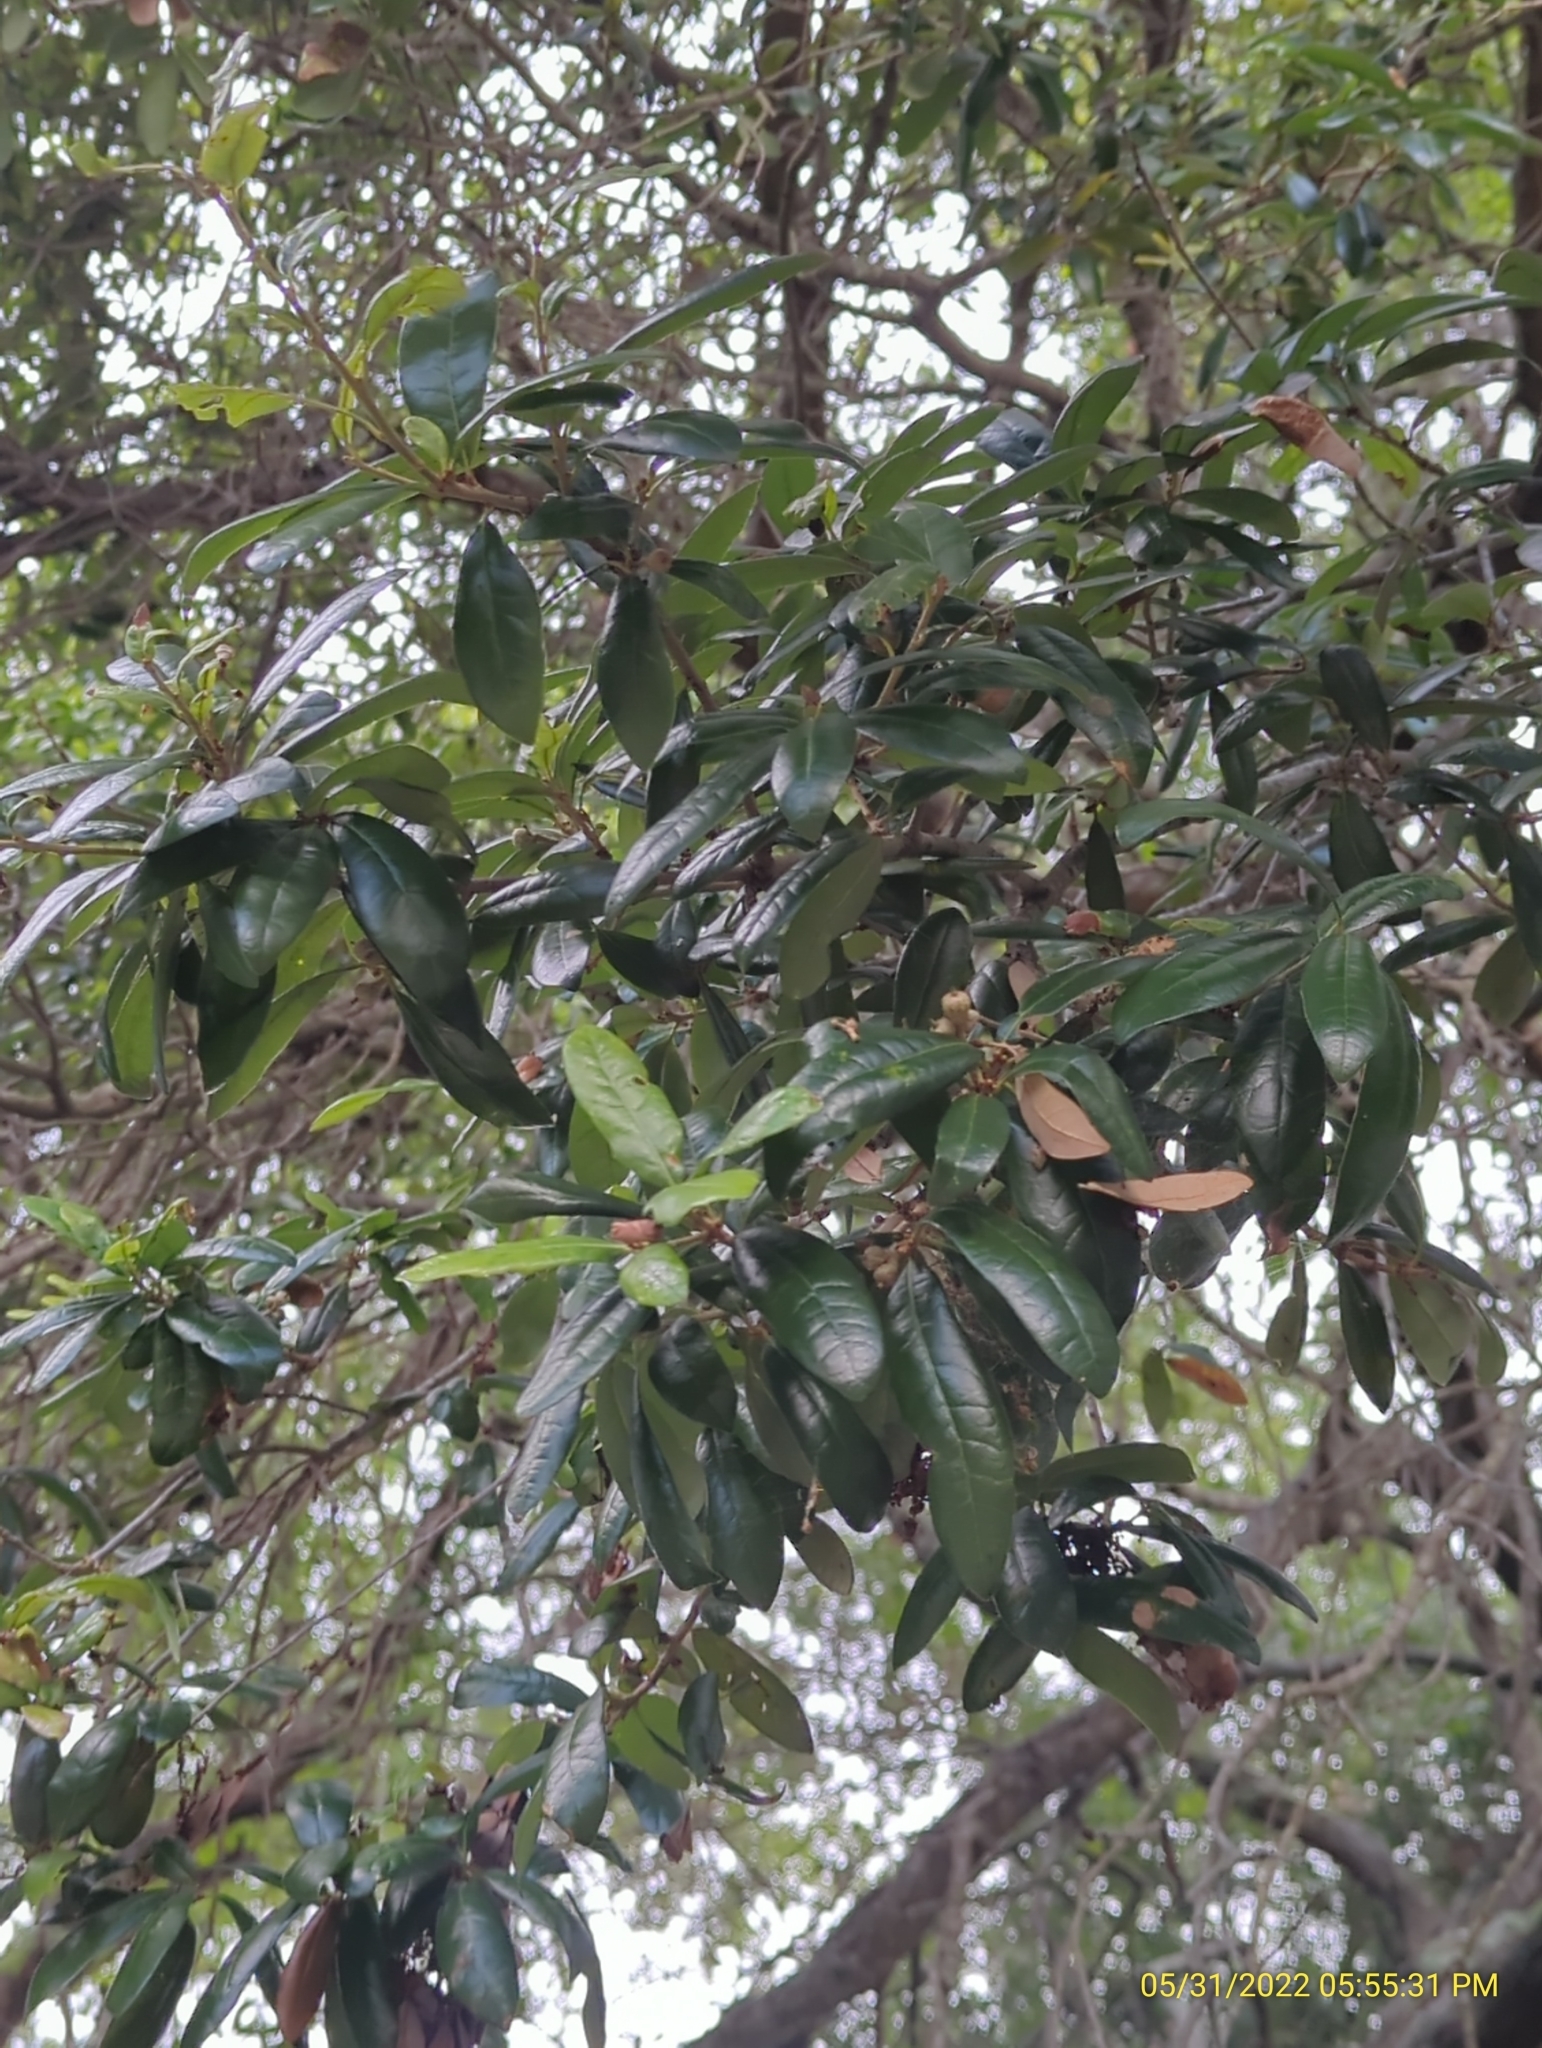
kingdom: Plantae
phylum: Tracheophyta
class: Magnoliopsida
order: Fagales
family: Fagaceae
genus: Quercus
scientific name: Quercus virginiana
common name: Southern live oak
